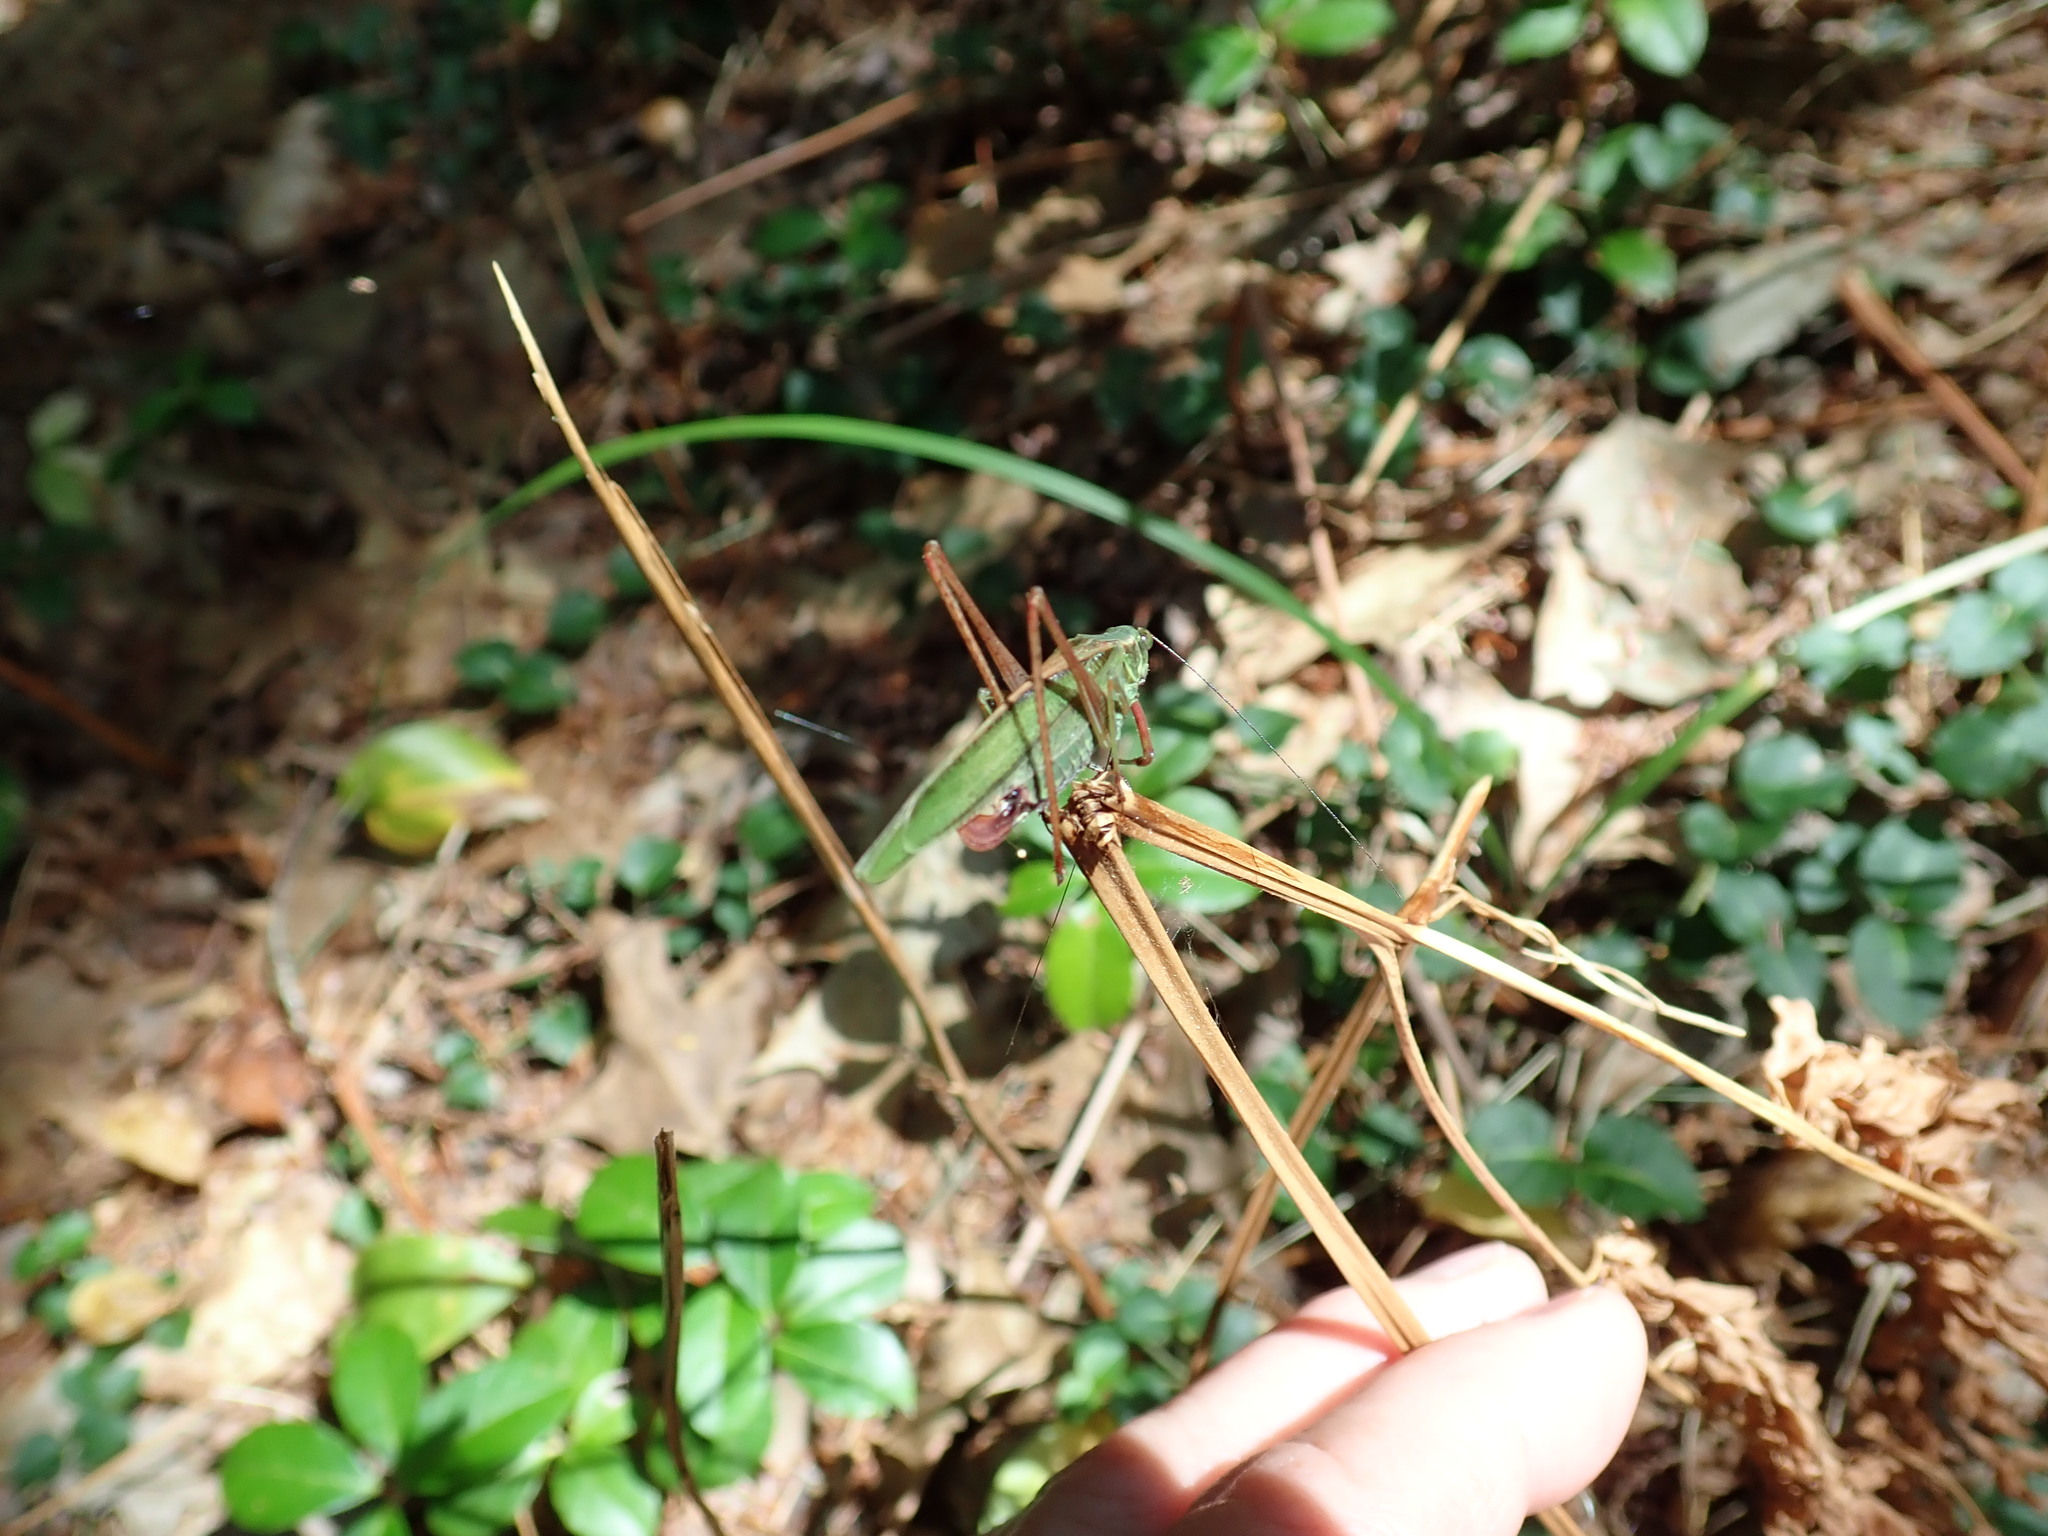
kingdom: Animalia
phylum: Arthropoda
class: Insecta
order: Orthoptera
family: Tettigoniidae
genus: Scudderia
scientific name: Scudderia fasciata
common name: Treetop bush katydid
